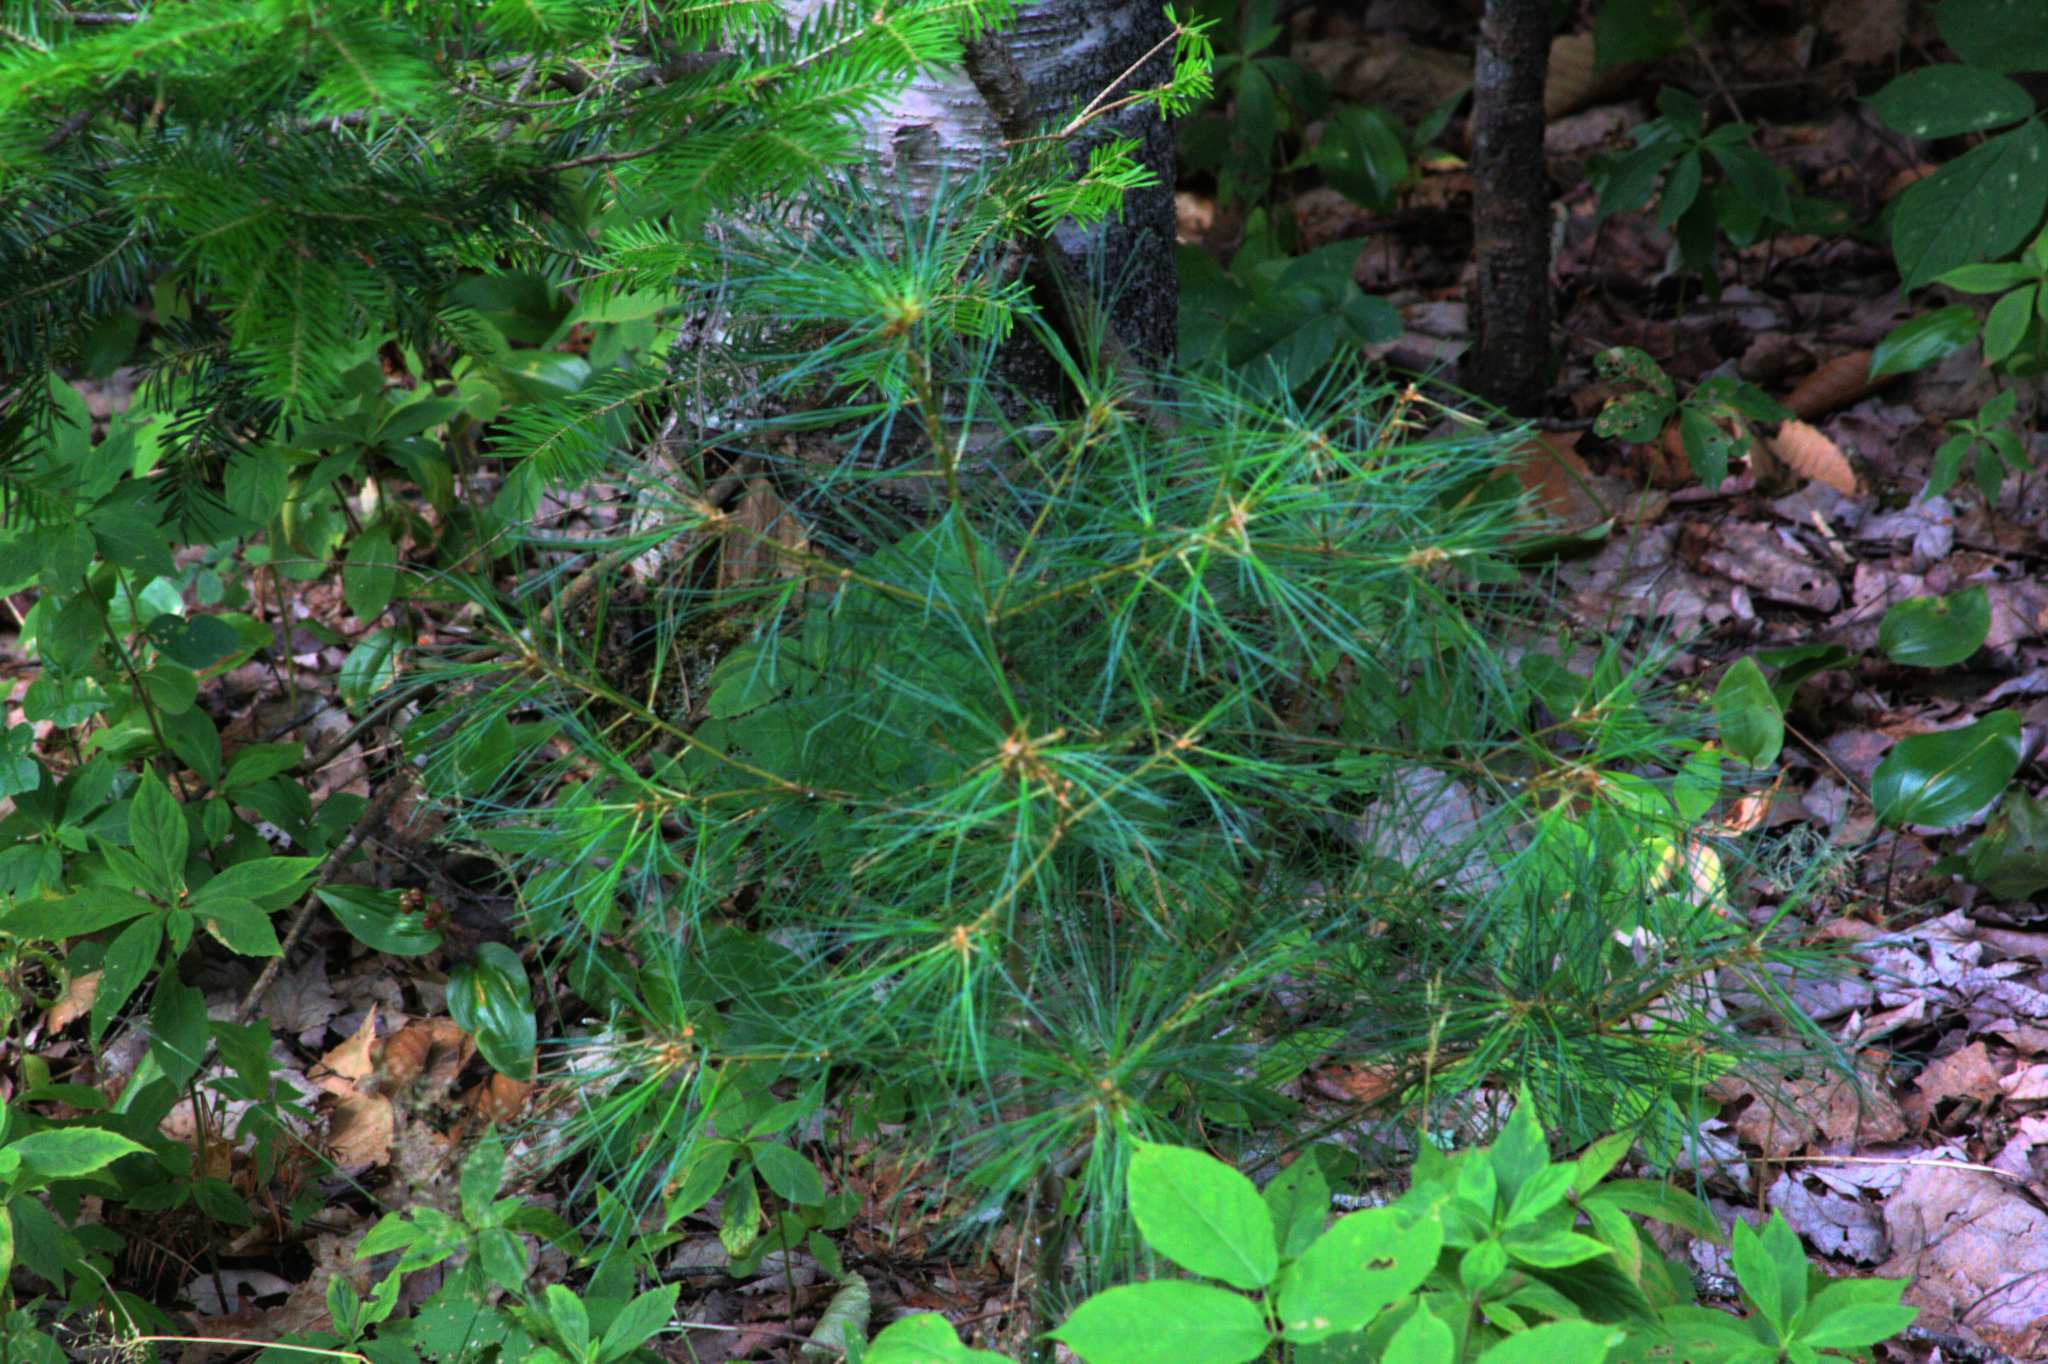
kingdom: Plantae
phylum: Tracheophyta
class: Pinopsida
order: Pinales
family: Pinaceae
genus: Pinus
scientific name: Pinus strobus
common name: Weymouth pine
